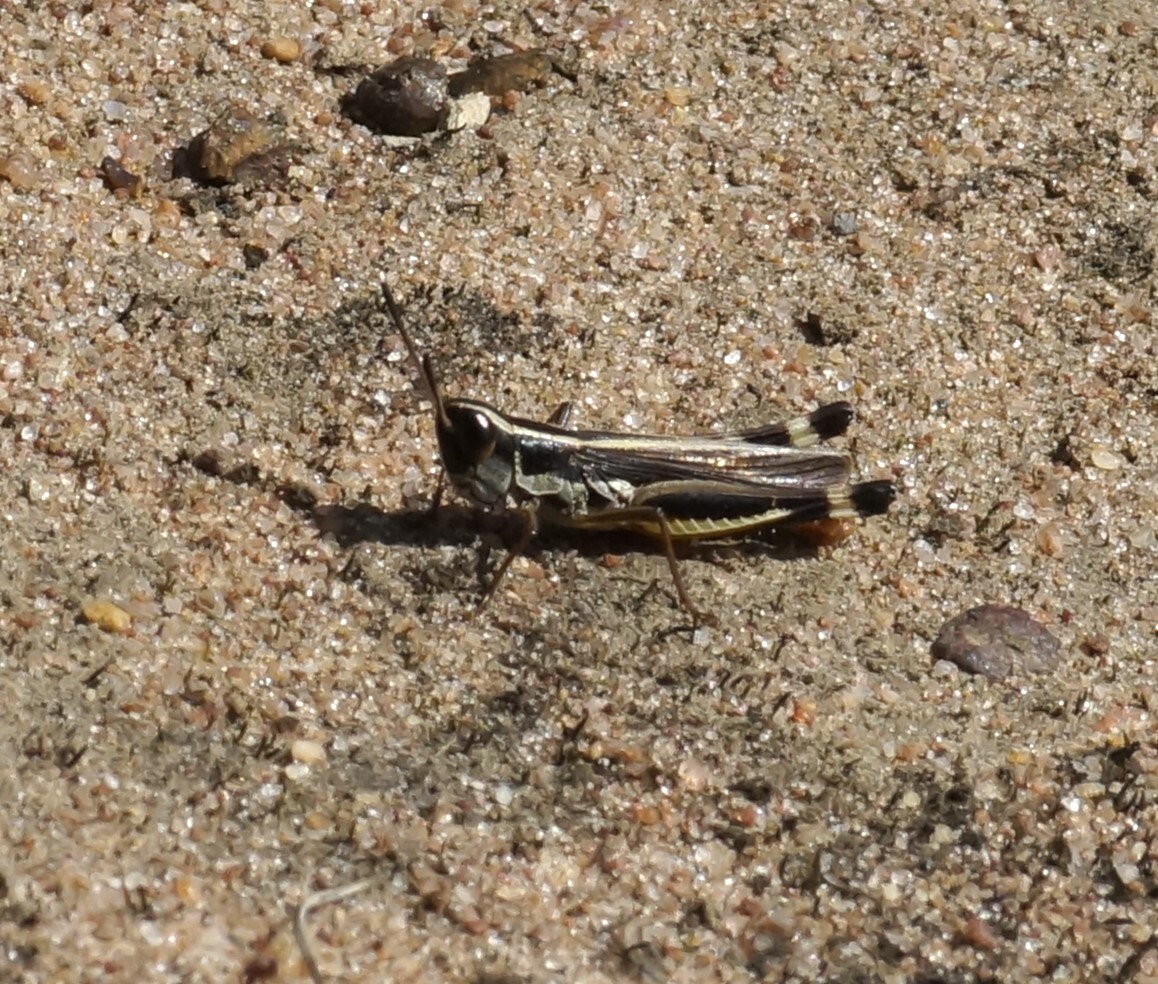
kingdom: Animalia
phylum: Arthropoda
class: Insecta
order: Orthoptera
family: Acrididae
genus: Macrotona
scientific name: Macrotona australis
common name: Common macrotona
